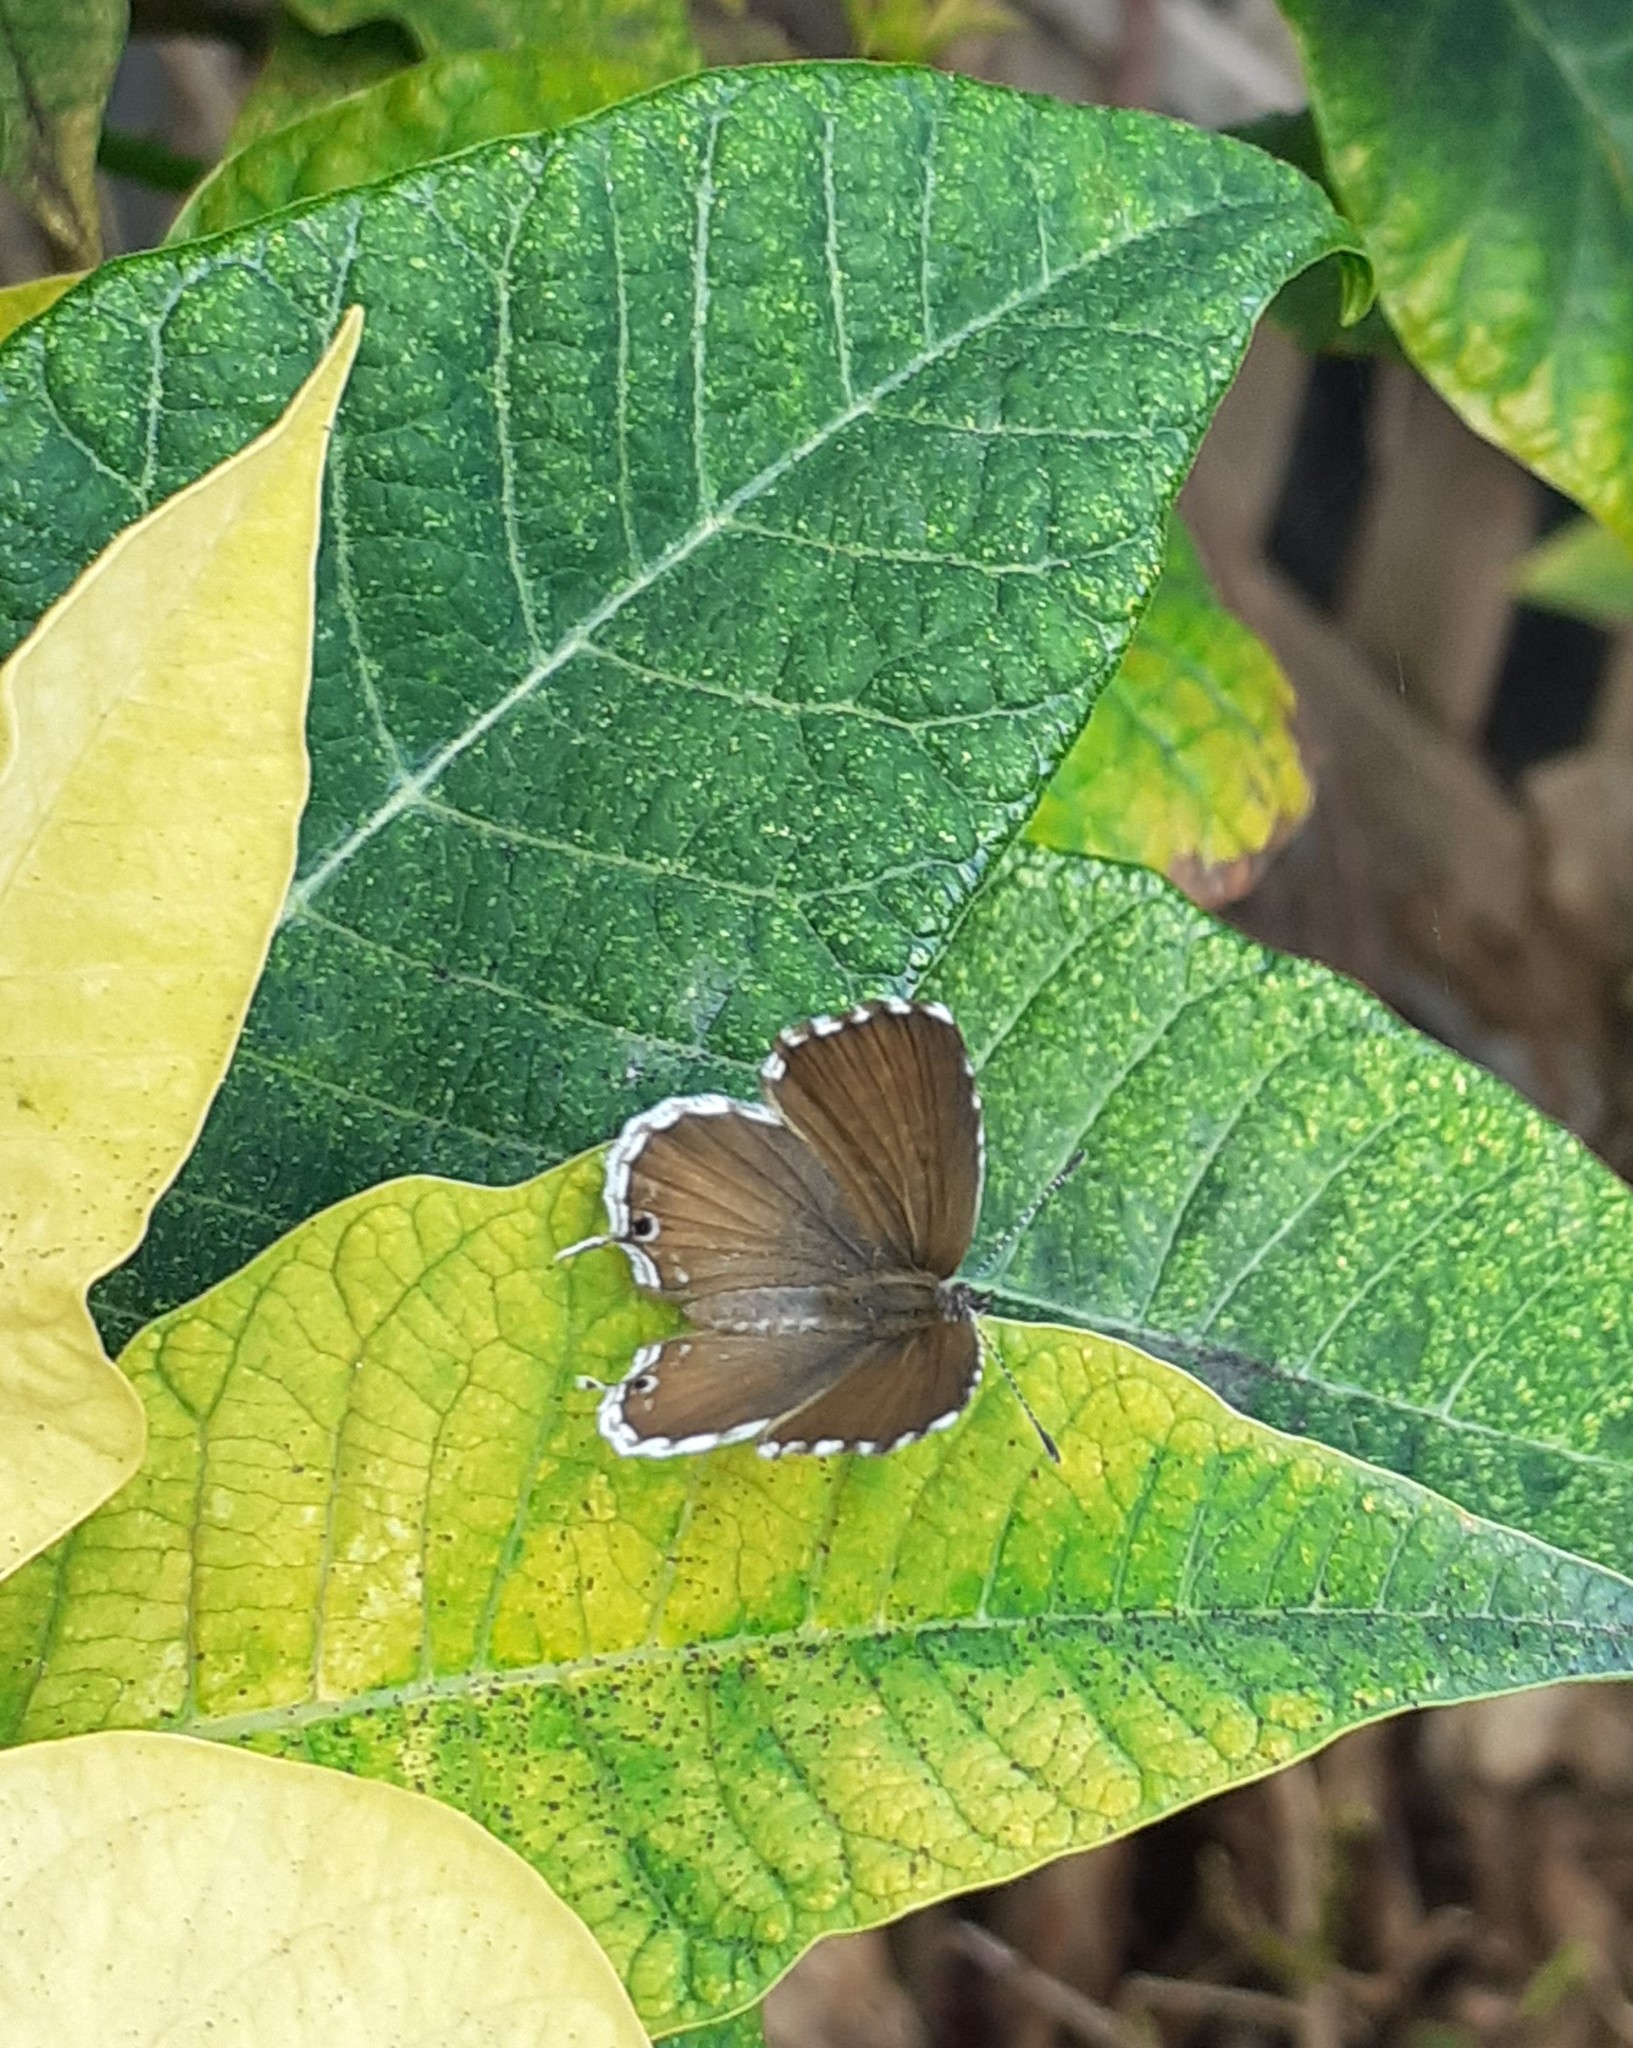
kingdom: Animalia
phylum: Arthropoda
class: Insecta
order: Lepidoptera
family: Lycaenidae
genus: Cacyreus
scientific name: Cacyreus marshalli
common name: Geranium bronze
